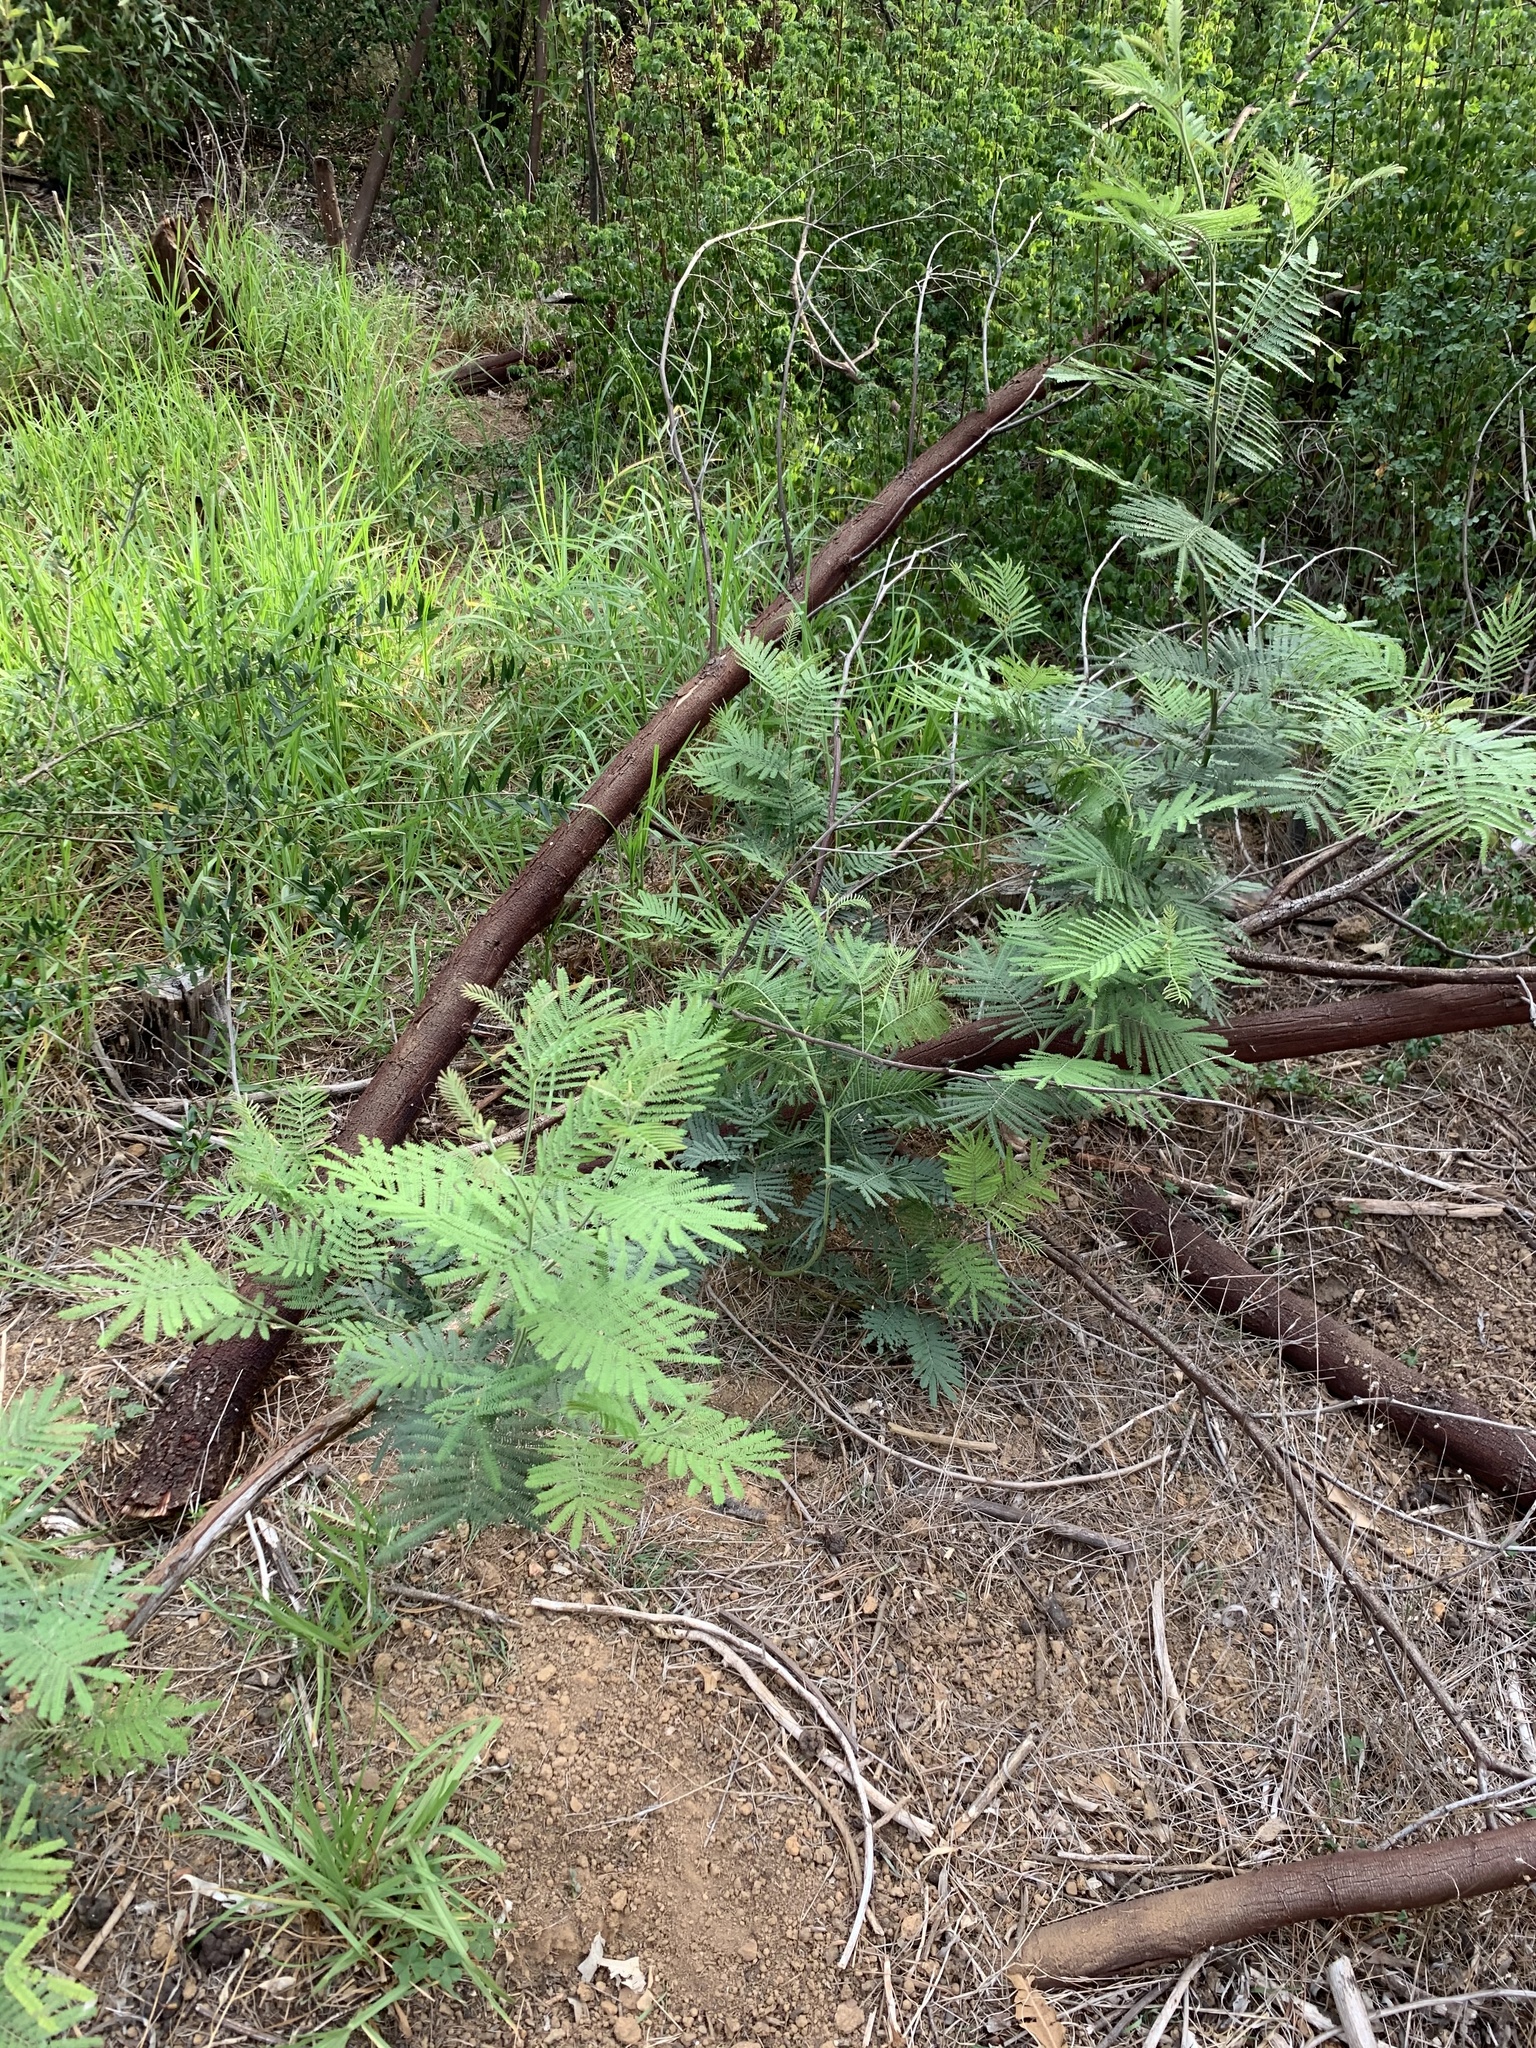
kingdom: Plantae
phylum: Tracheophyta
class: Magnoliopsida
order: Fabales
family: Fabaceae
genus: Acacia
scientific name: Acacia mearnsii
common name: Black wattle
